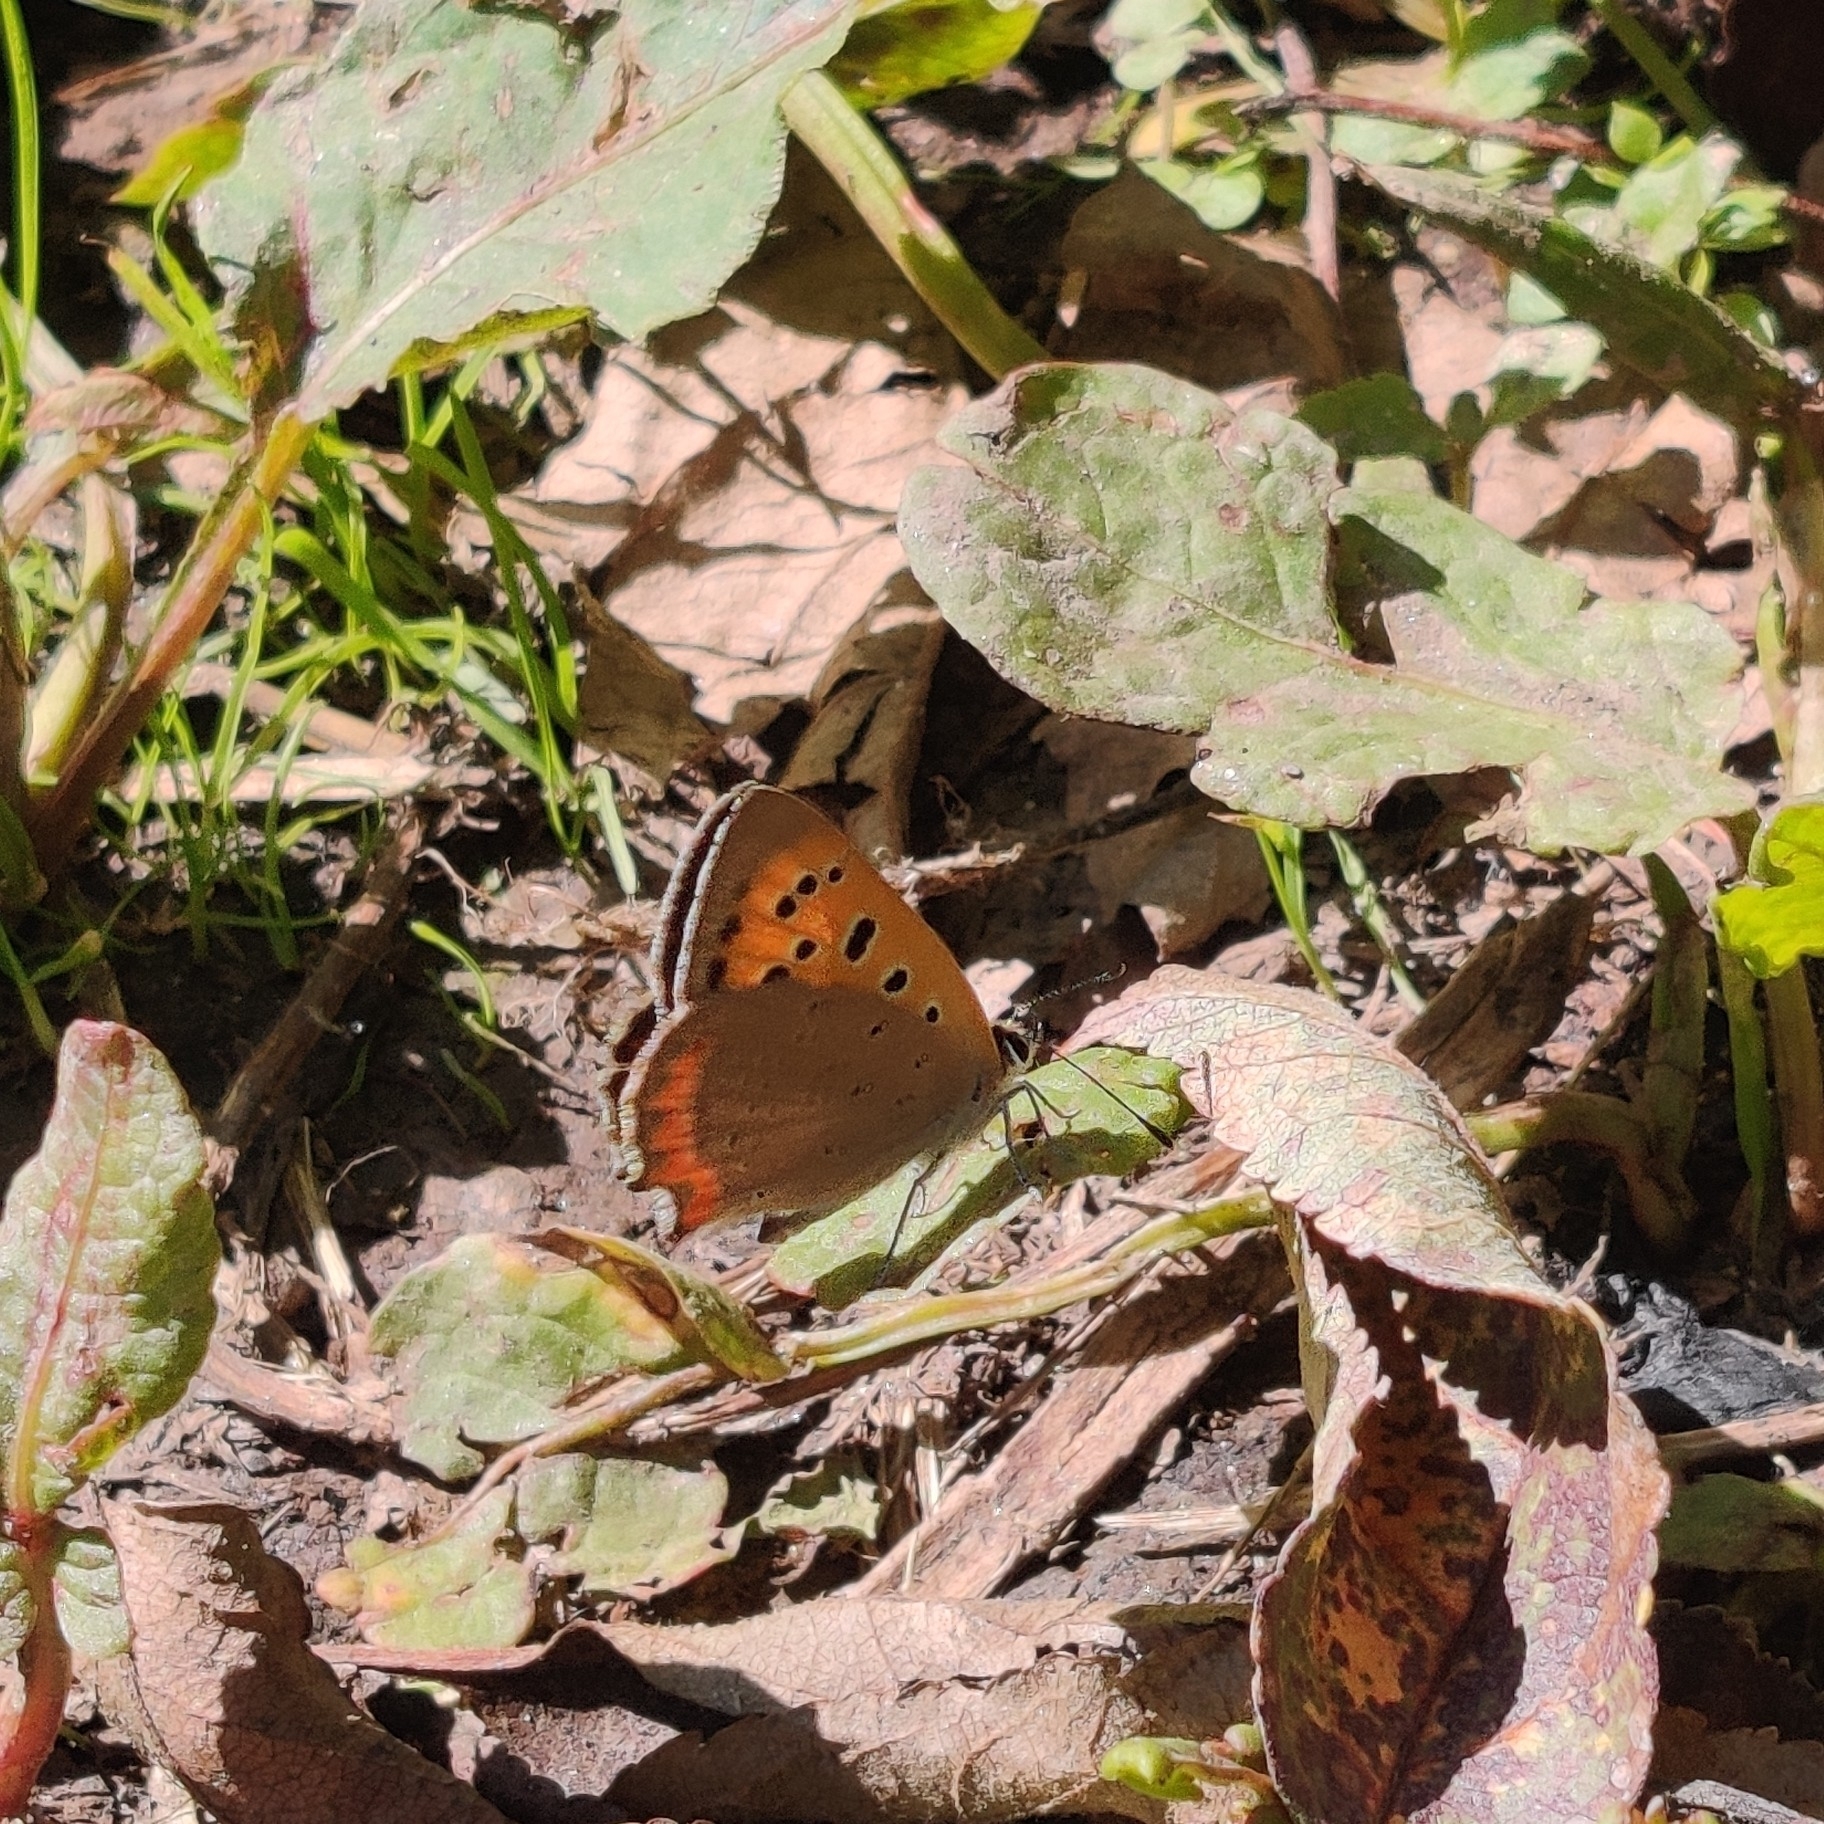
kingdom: Animalia
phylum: Arthropoda
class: Insecta
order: Lepidoptera
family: Lycaenidae
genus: Lycaena
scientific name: Lycaena phlaeas
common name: Small copper
